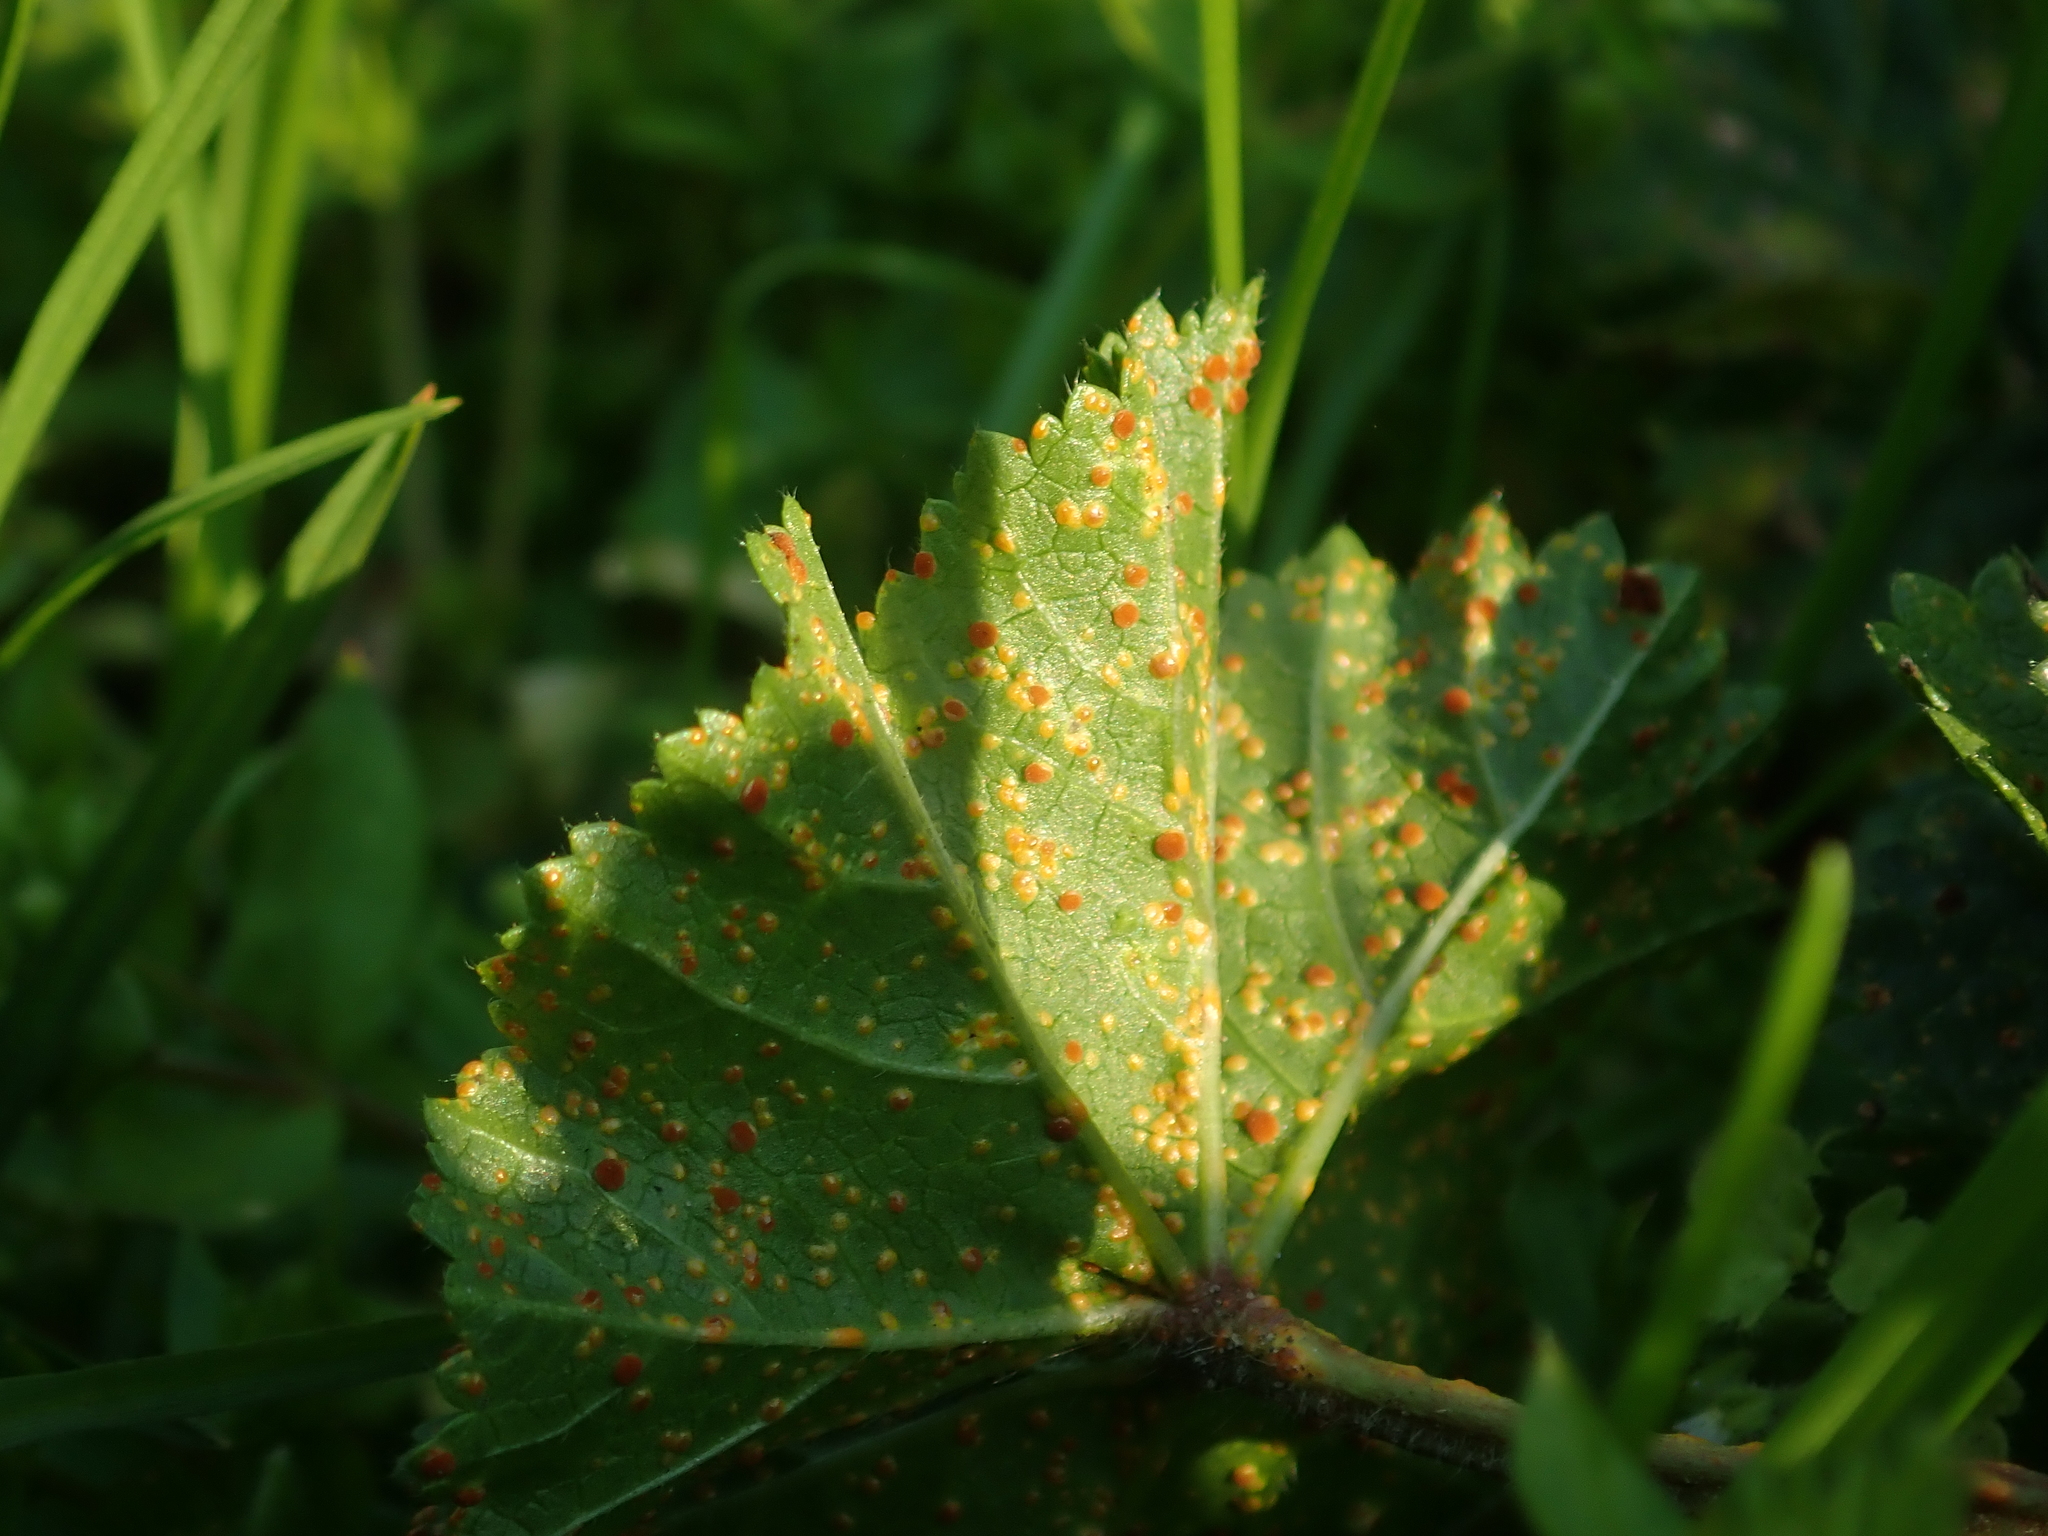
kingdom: Fungi
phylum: Basidiomycota
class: Pucciniomycetes
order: Pucciniales
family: Pucciniaceae
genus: Puccinia
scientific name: Puccinia malvacearum
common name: Hollyhock rust
